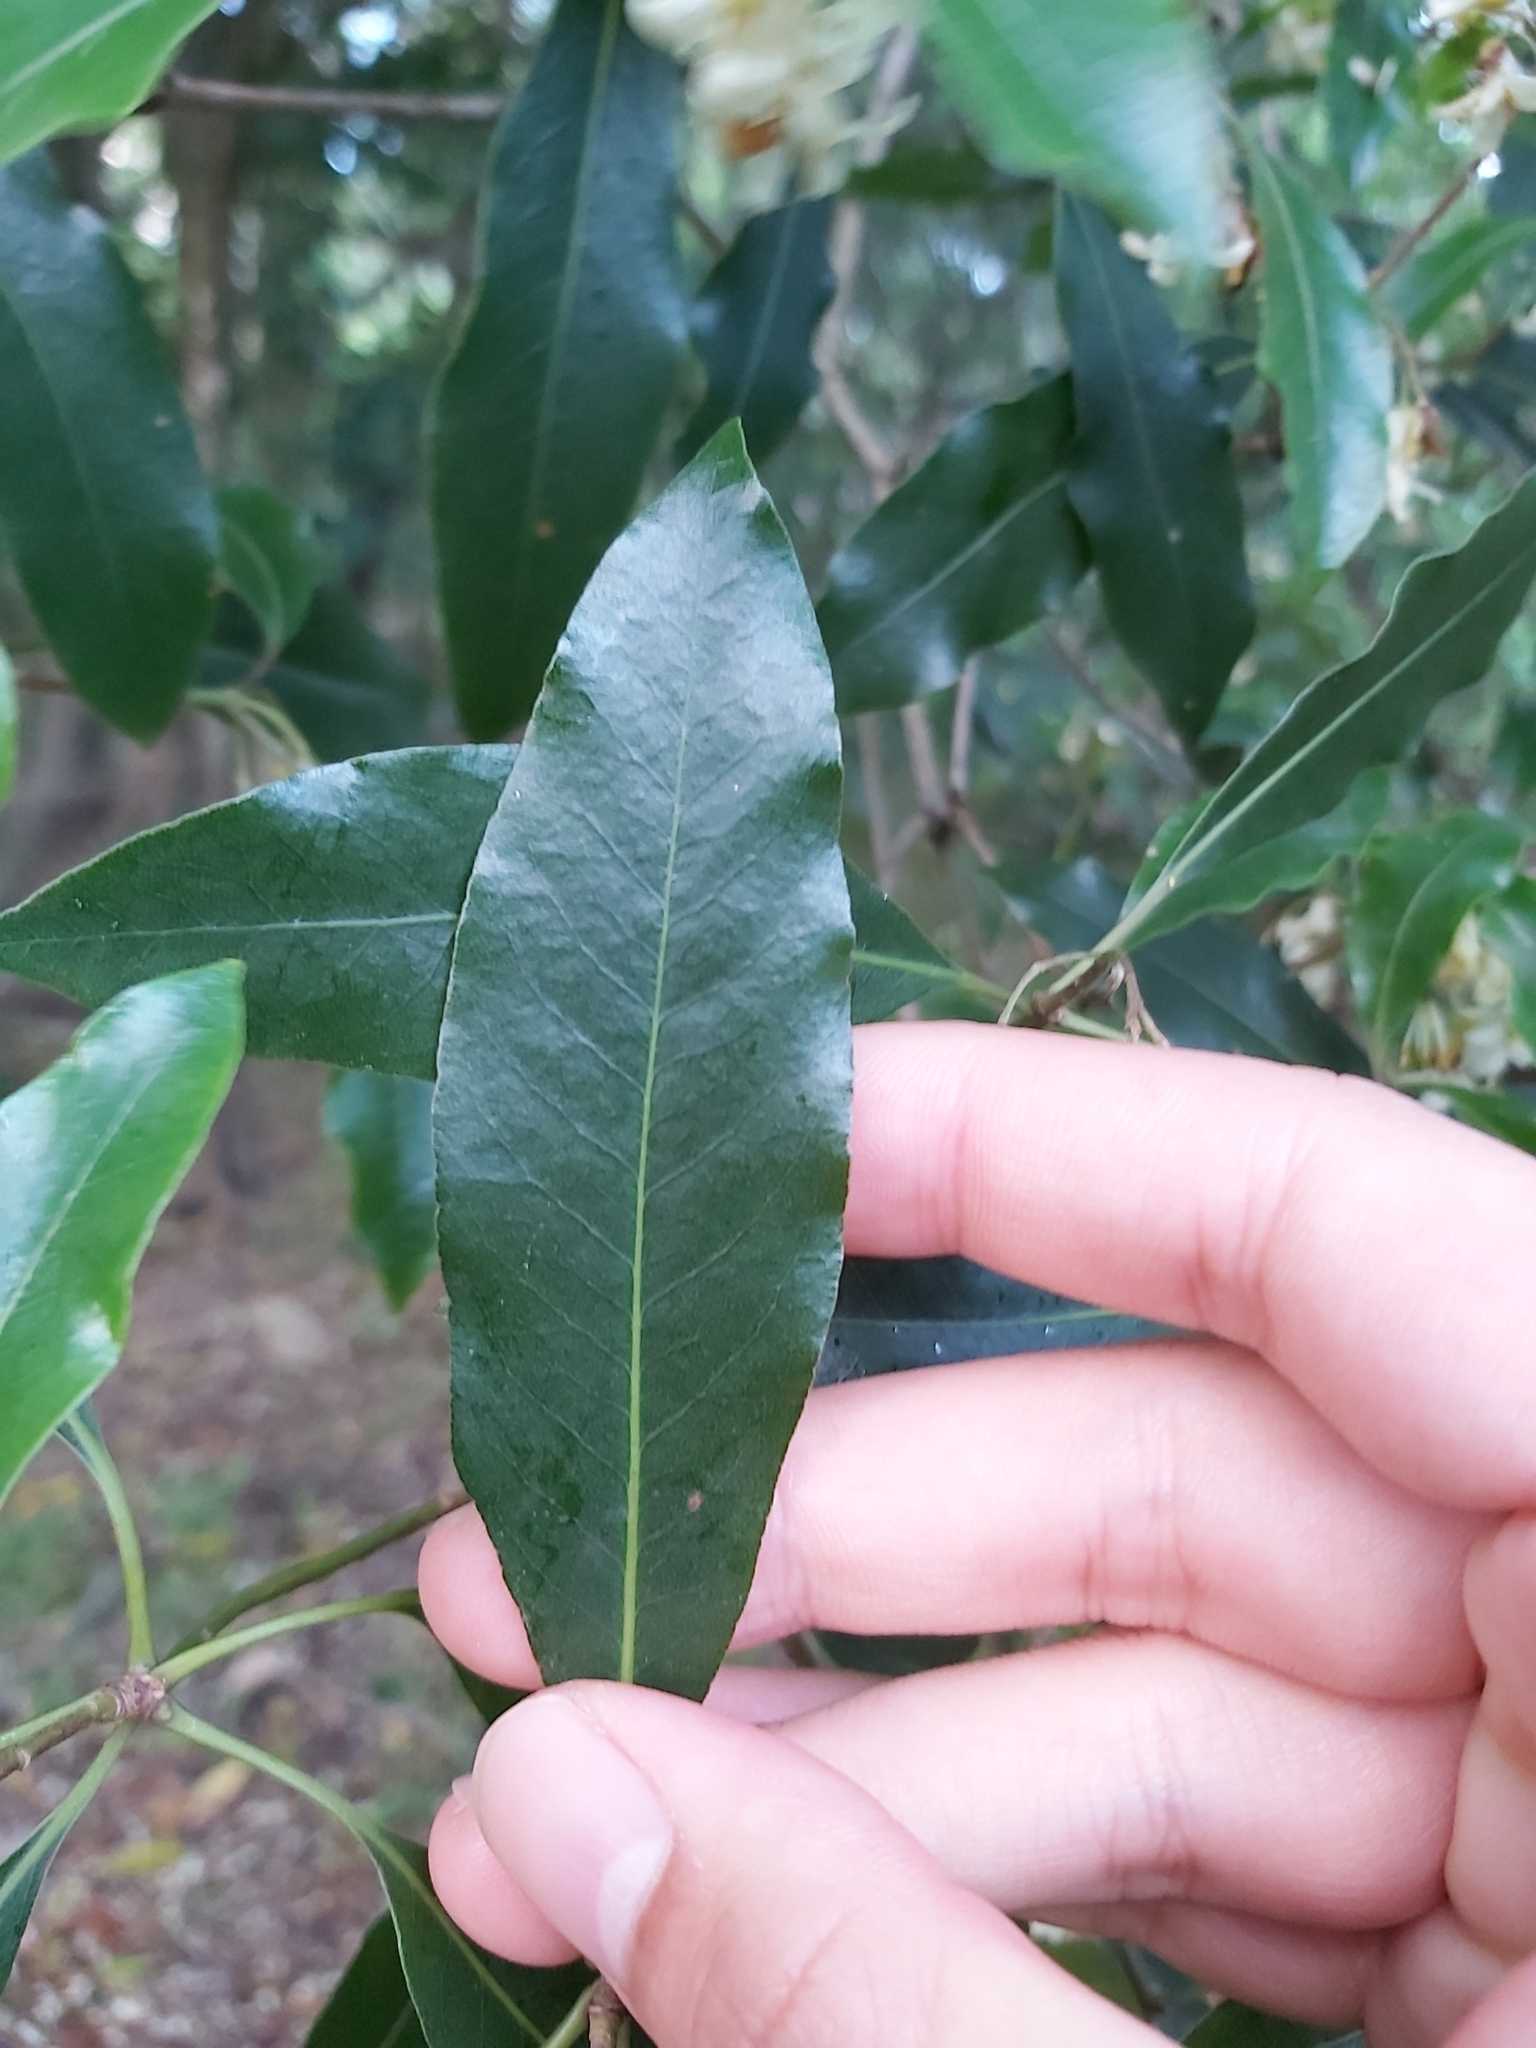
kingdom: Plantae
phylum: Tracheophyta
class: Magnoliopsida
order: Apiales
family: Pittosporaceae
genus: Pittosporum
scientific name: Pittosporum undulatum
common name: Australian cheesewood
